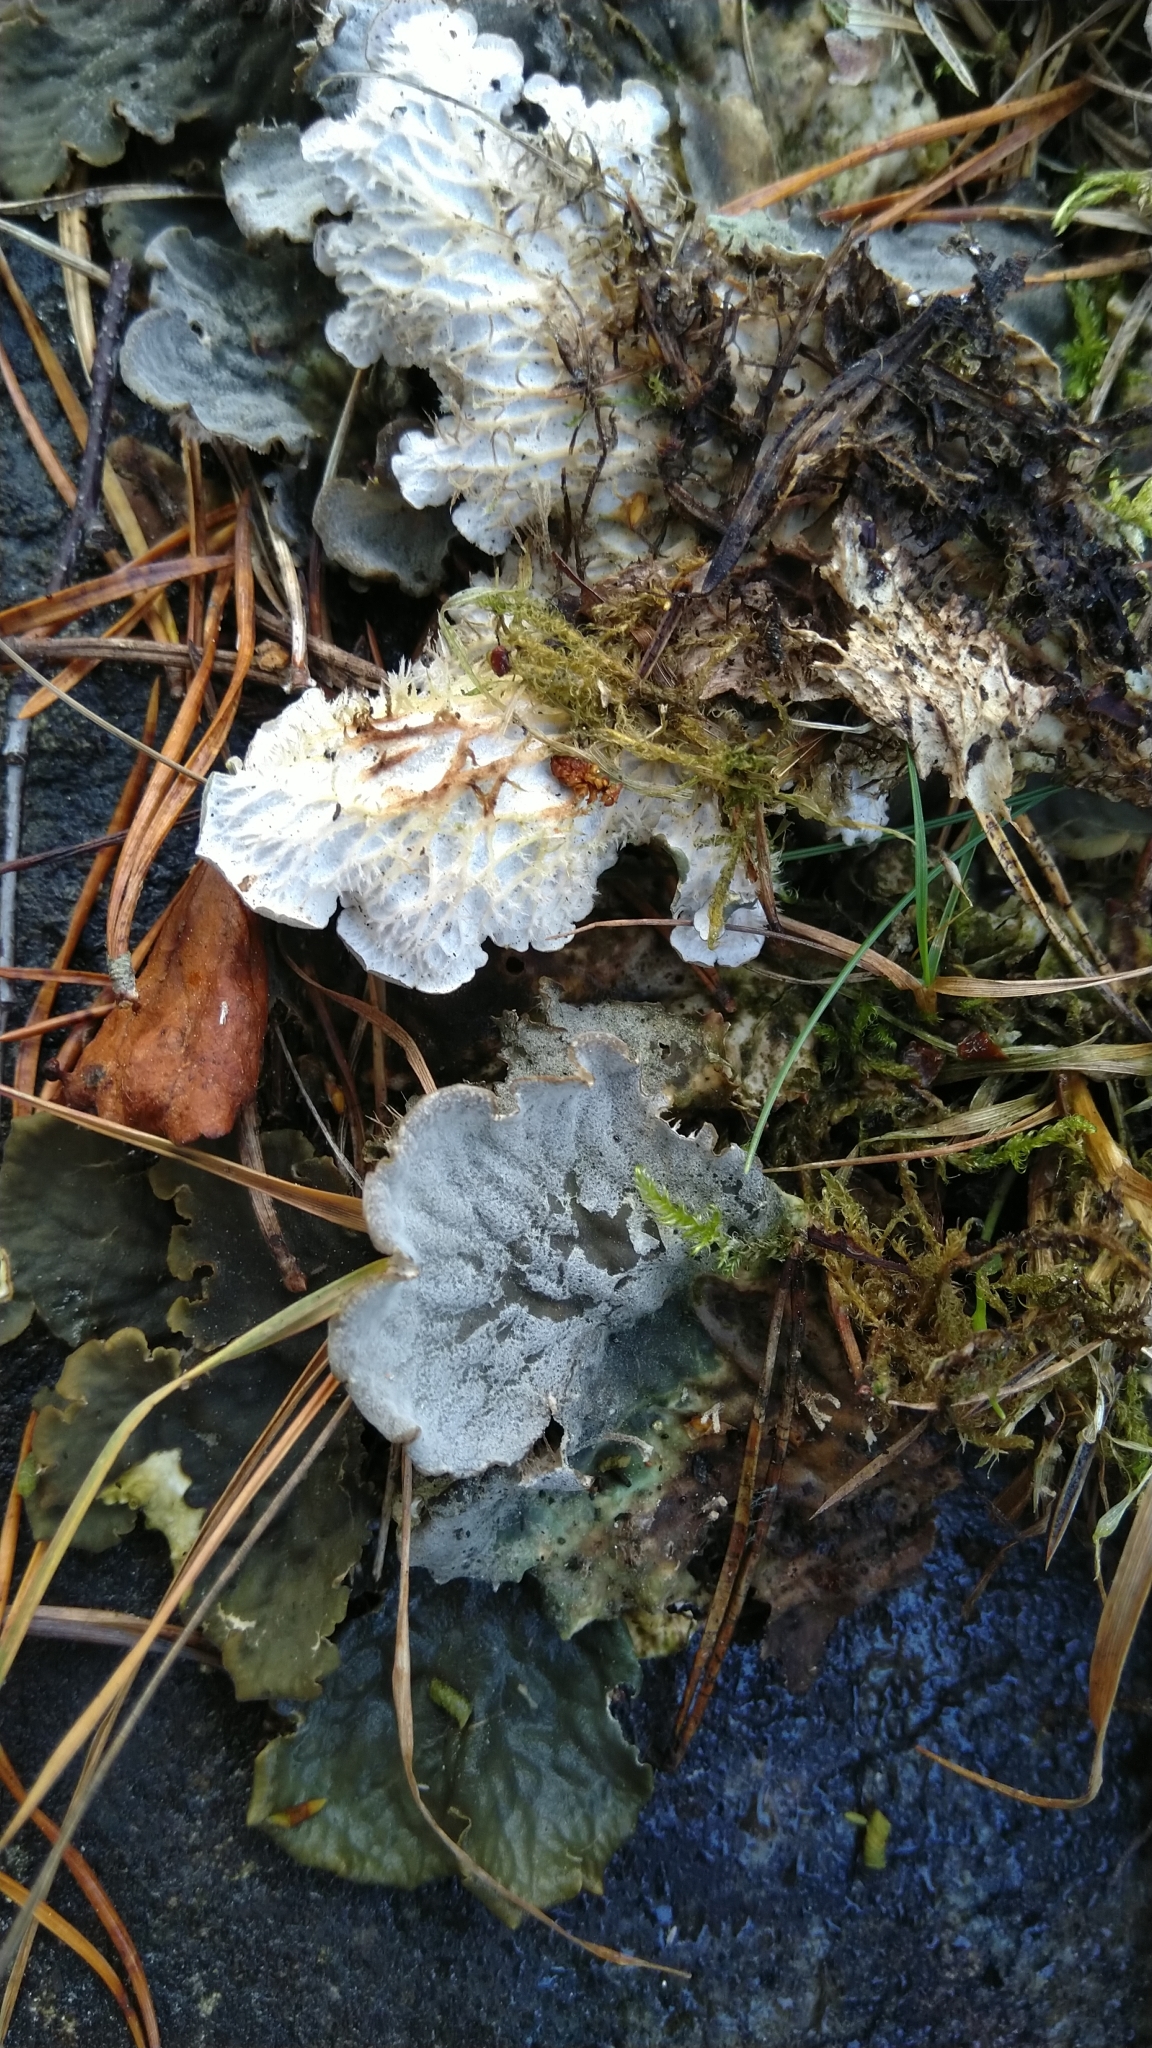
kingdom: Fungi
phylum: Ascomycota
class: Lecanoromycetes
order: Peltigerales
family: Peltigeraceae
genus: Peltigera
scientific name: Peltigera membranacea
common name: Membranous pelt lichen
